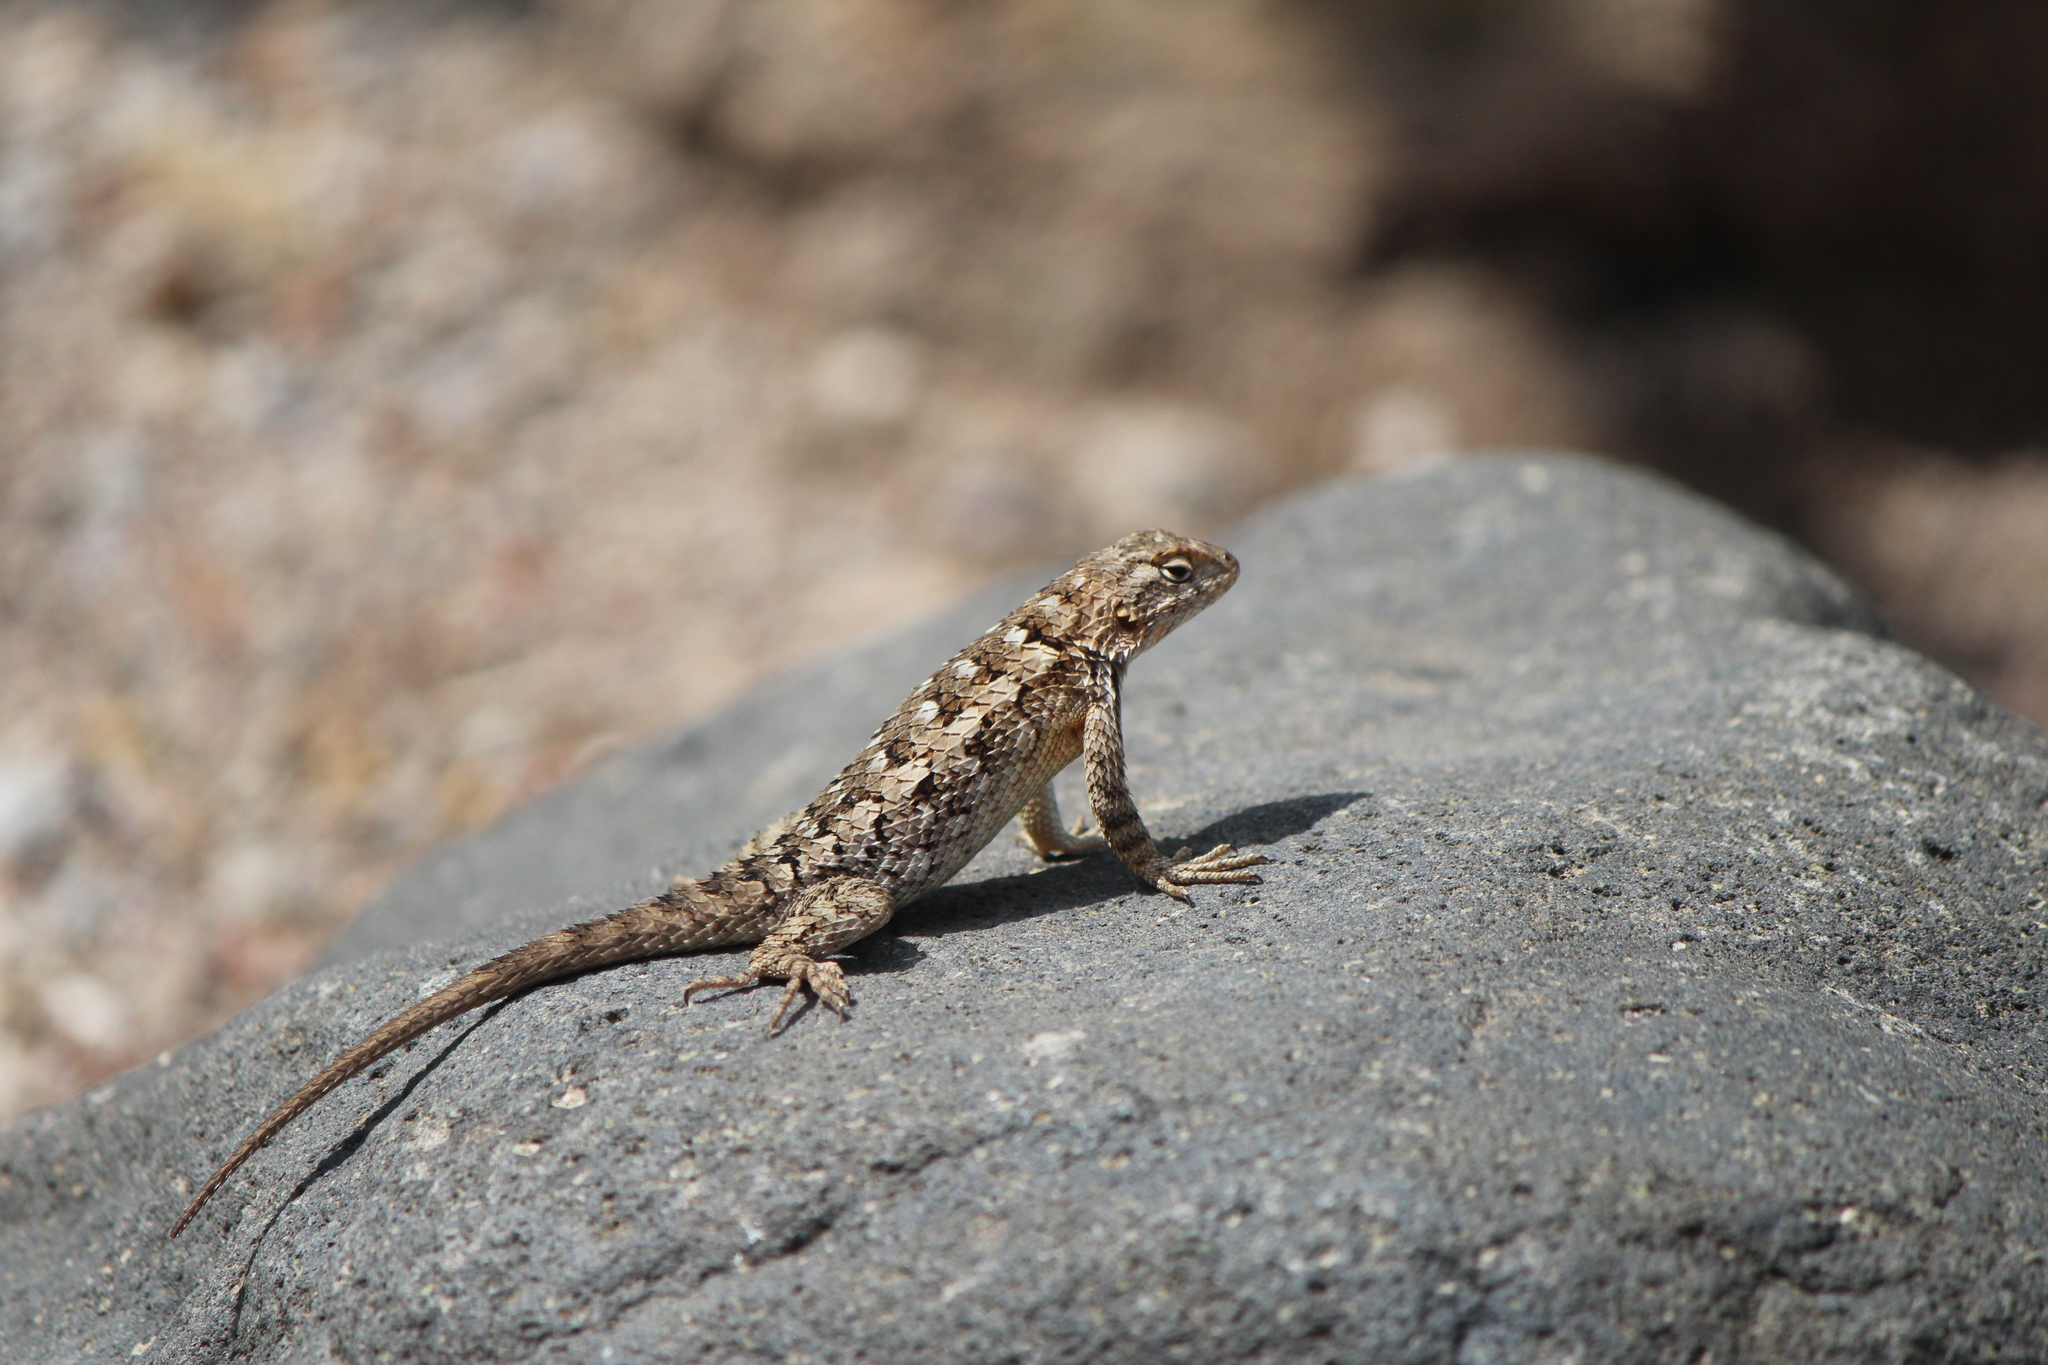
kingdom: Animalia
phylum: Chordata
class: Squamata
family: Phrynosomatidae
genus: Sceloporus
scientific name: Sceloporus spinosus
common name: Blue-spotted spiny lizard [caeruleopunctatus]
